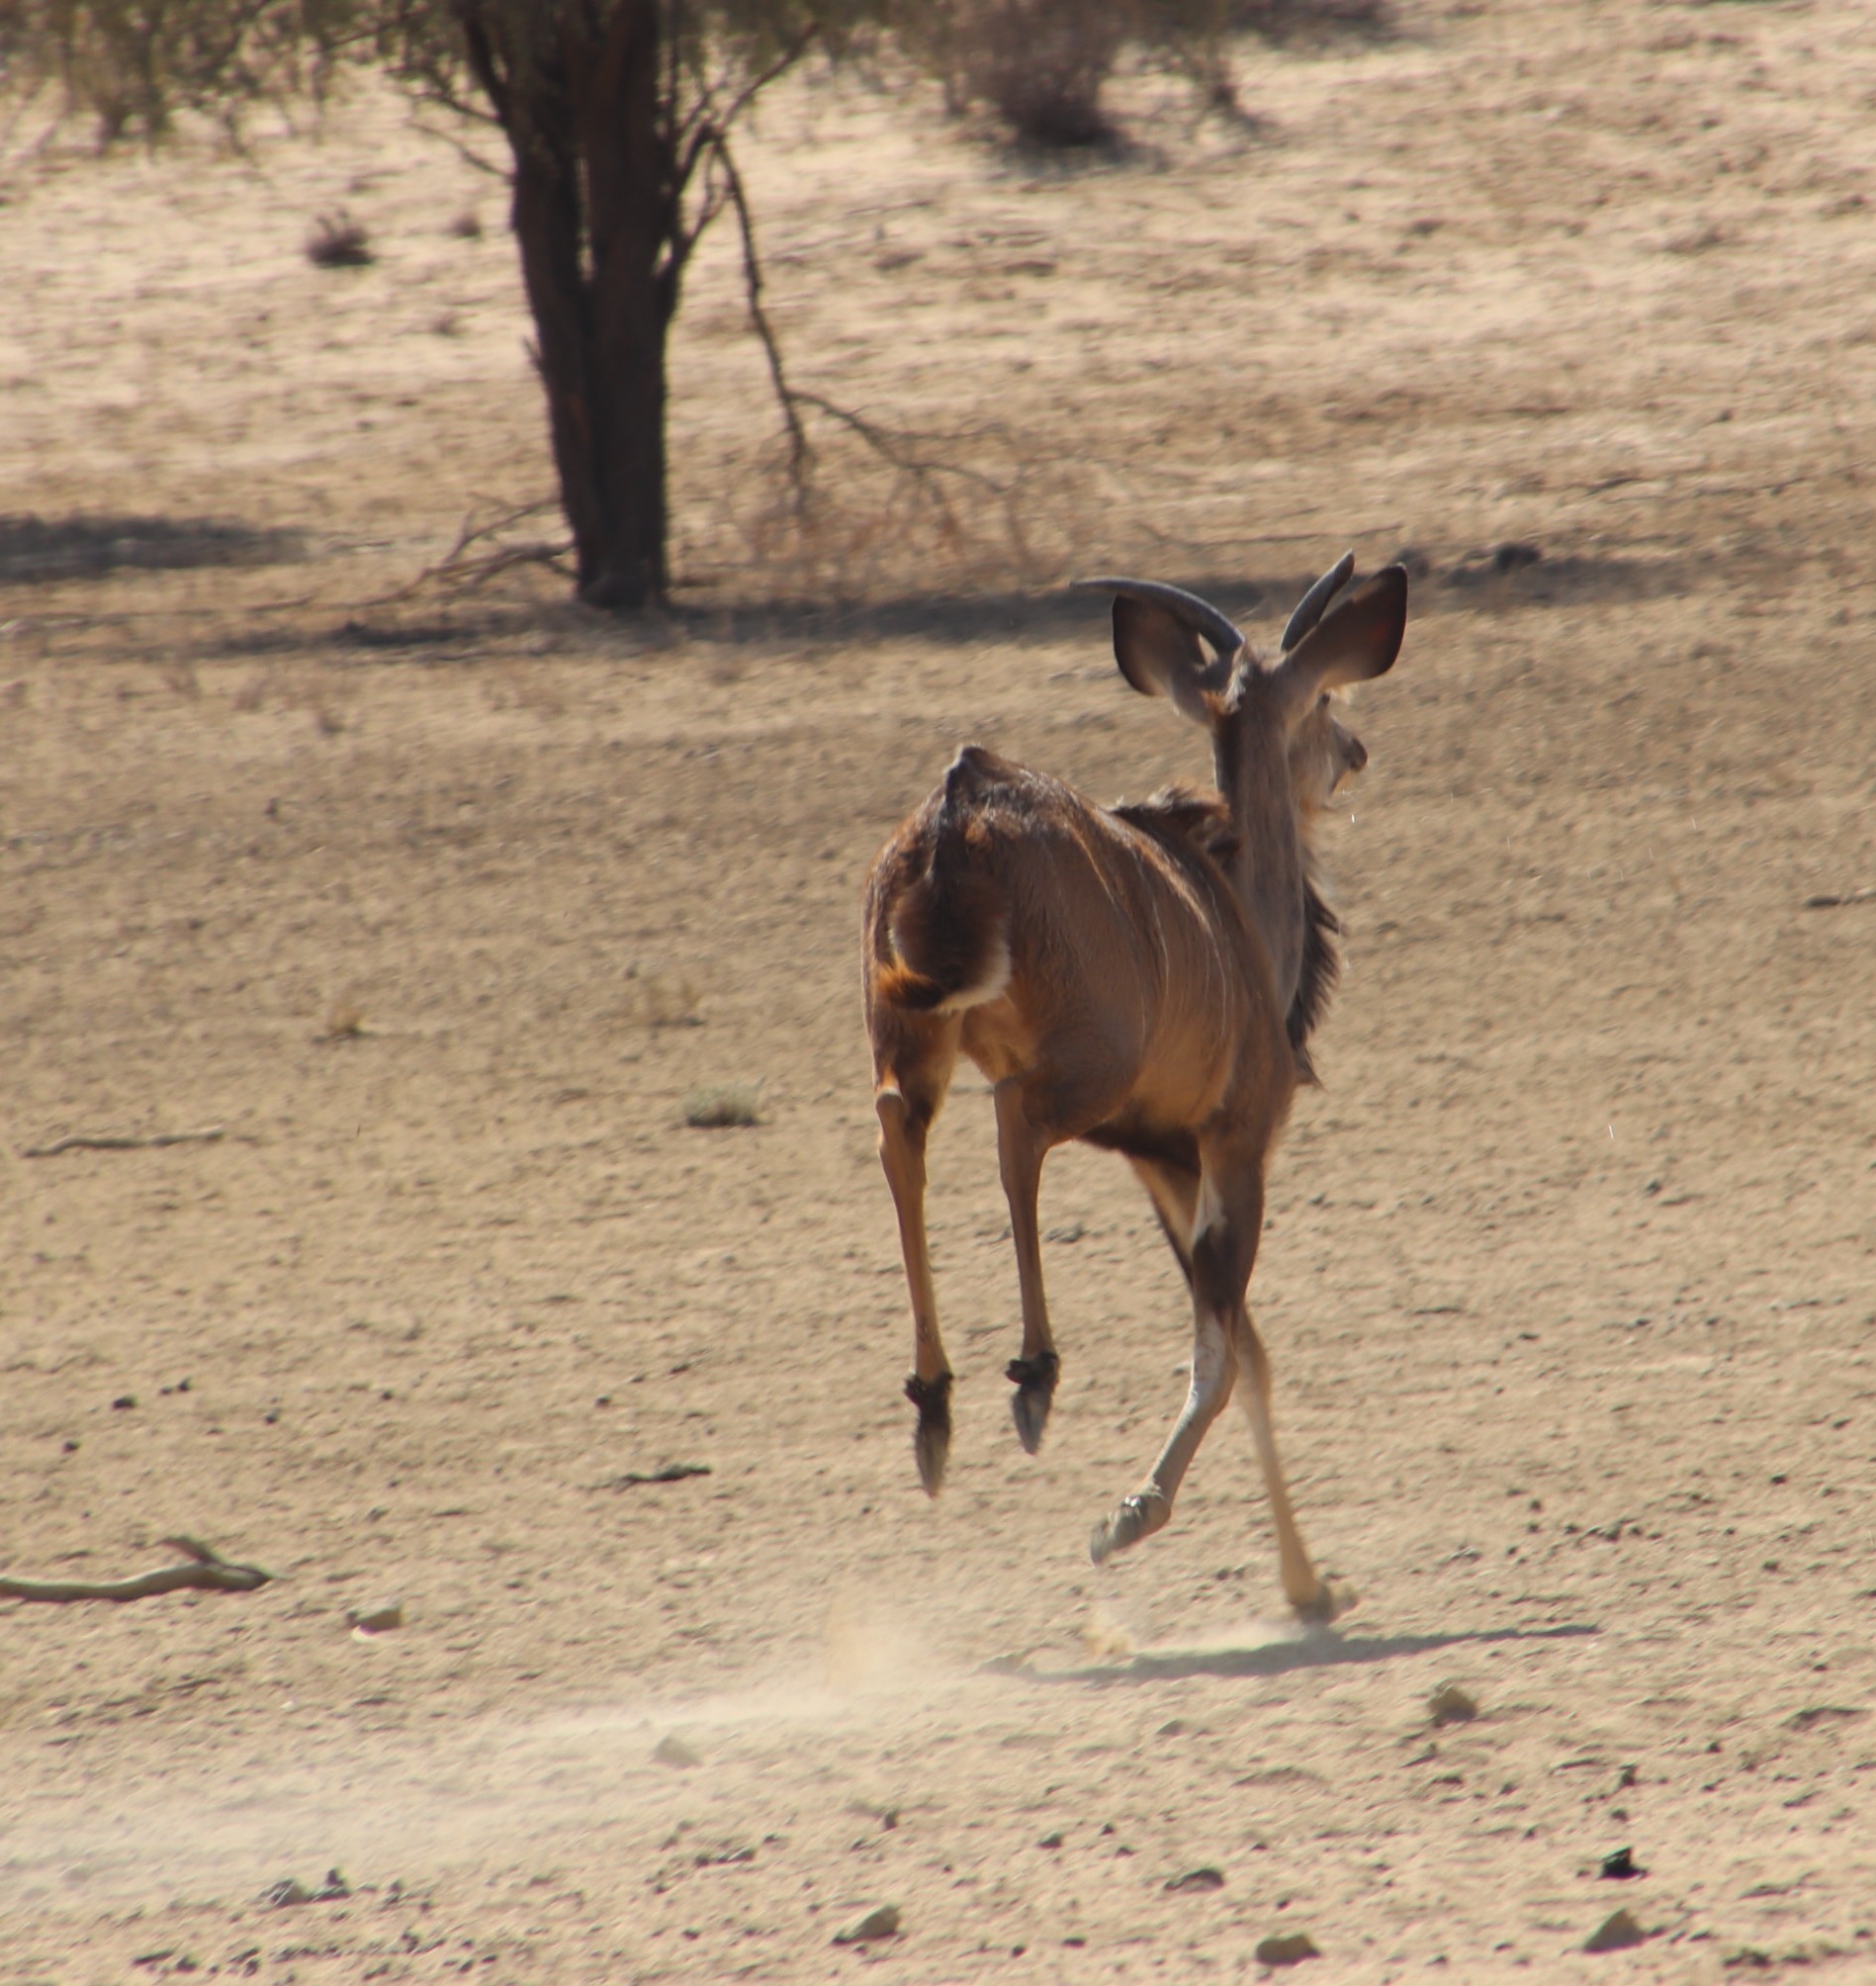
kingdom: Animalia
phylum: Chordata
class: Mammalia
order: Artiodactyla
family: Bovidae
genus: Tragelaphus
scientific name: Tragelaphus strepsiceros
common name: Greater kudu
